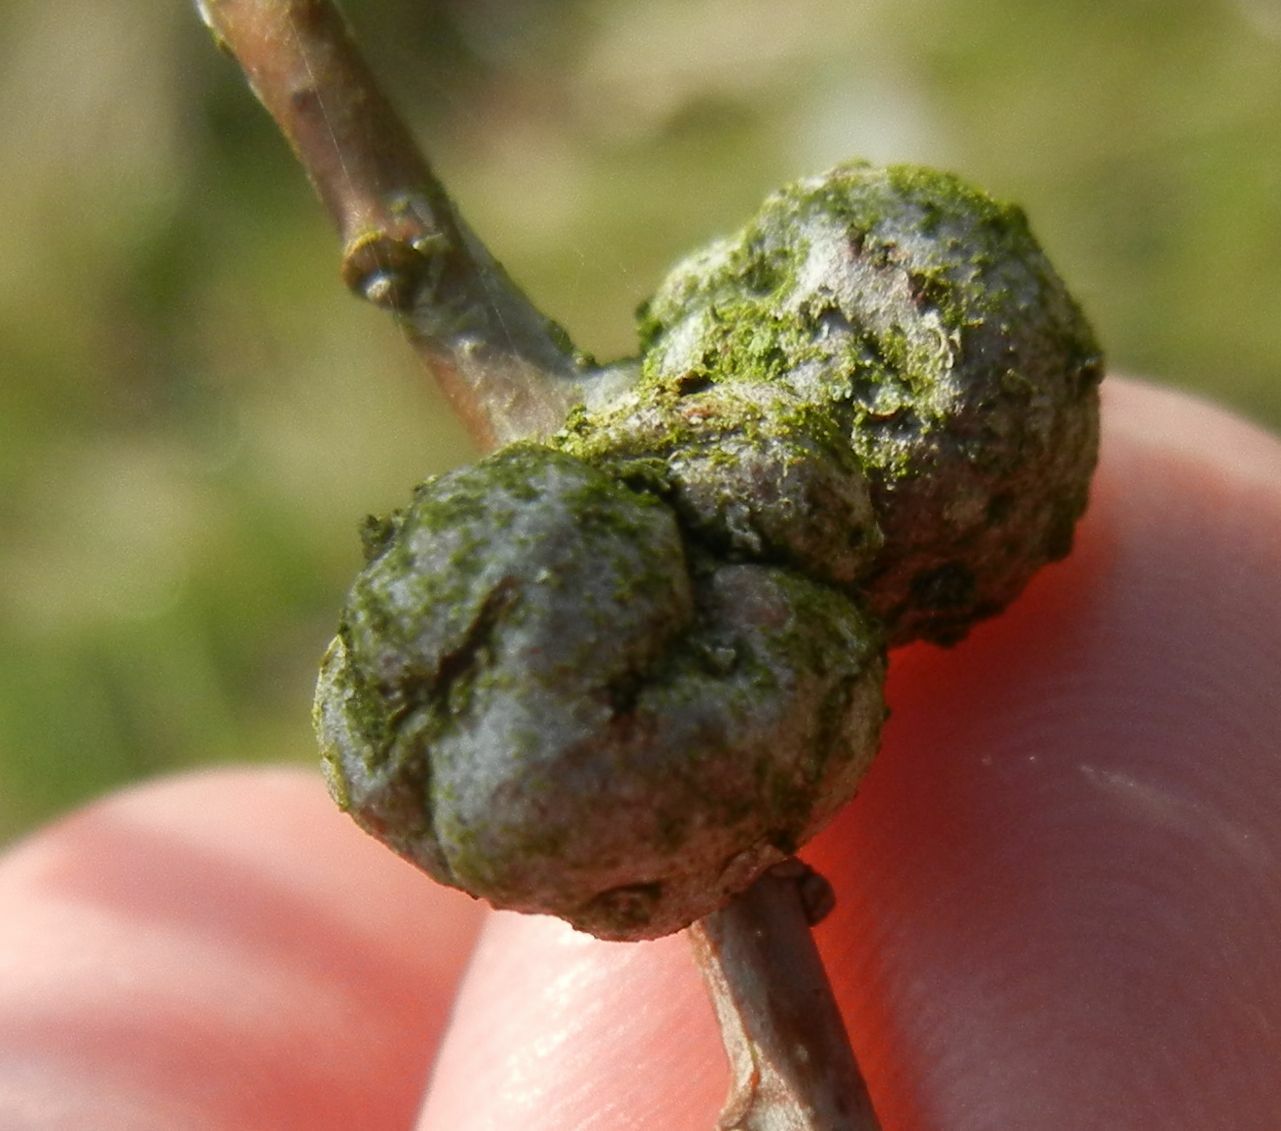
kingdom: Animalia
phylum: Arthropoda
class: Insecta
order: Hymenoptera
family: Cynipidae
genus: Andricus
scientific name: Andricus lignicolus
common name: Cola-nut gall
